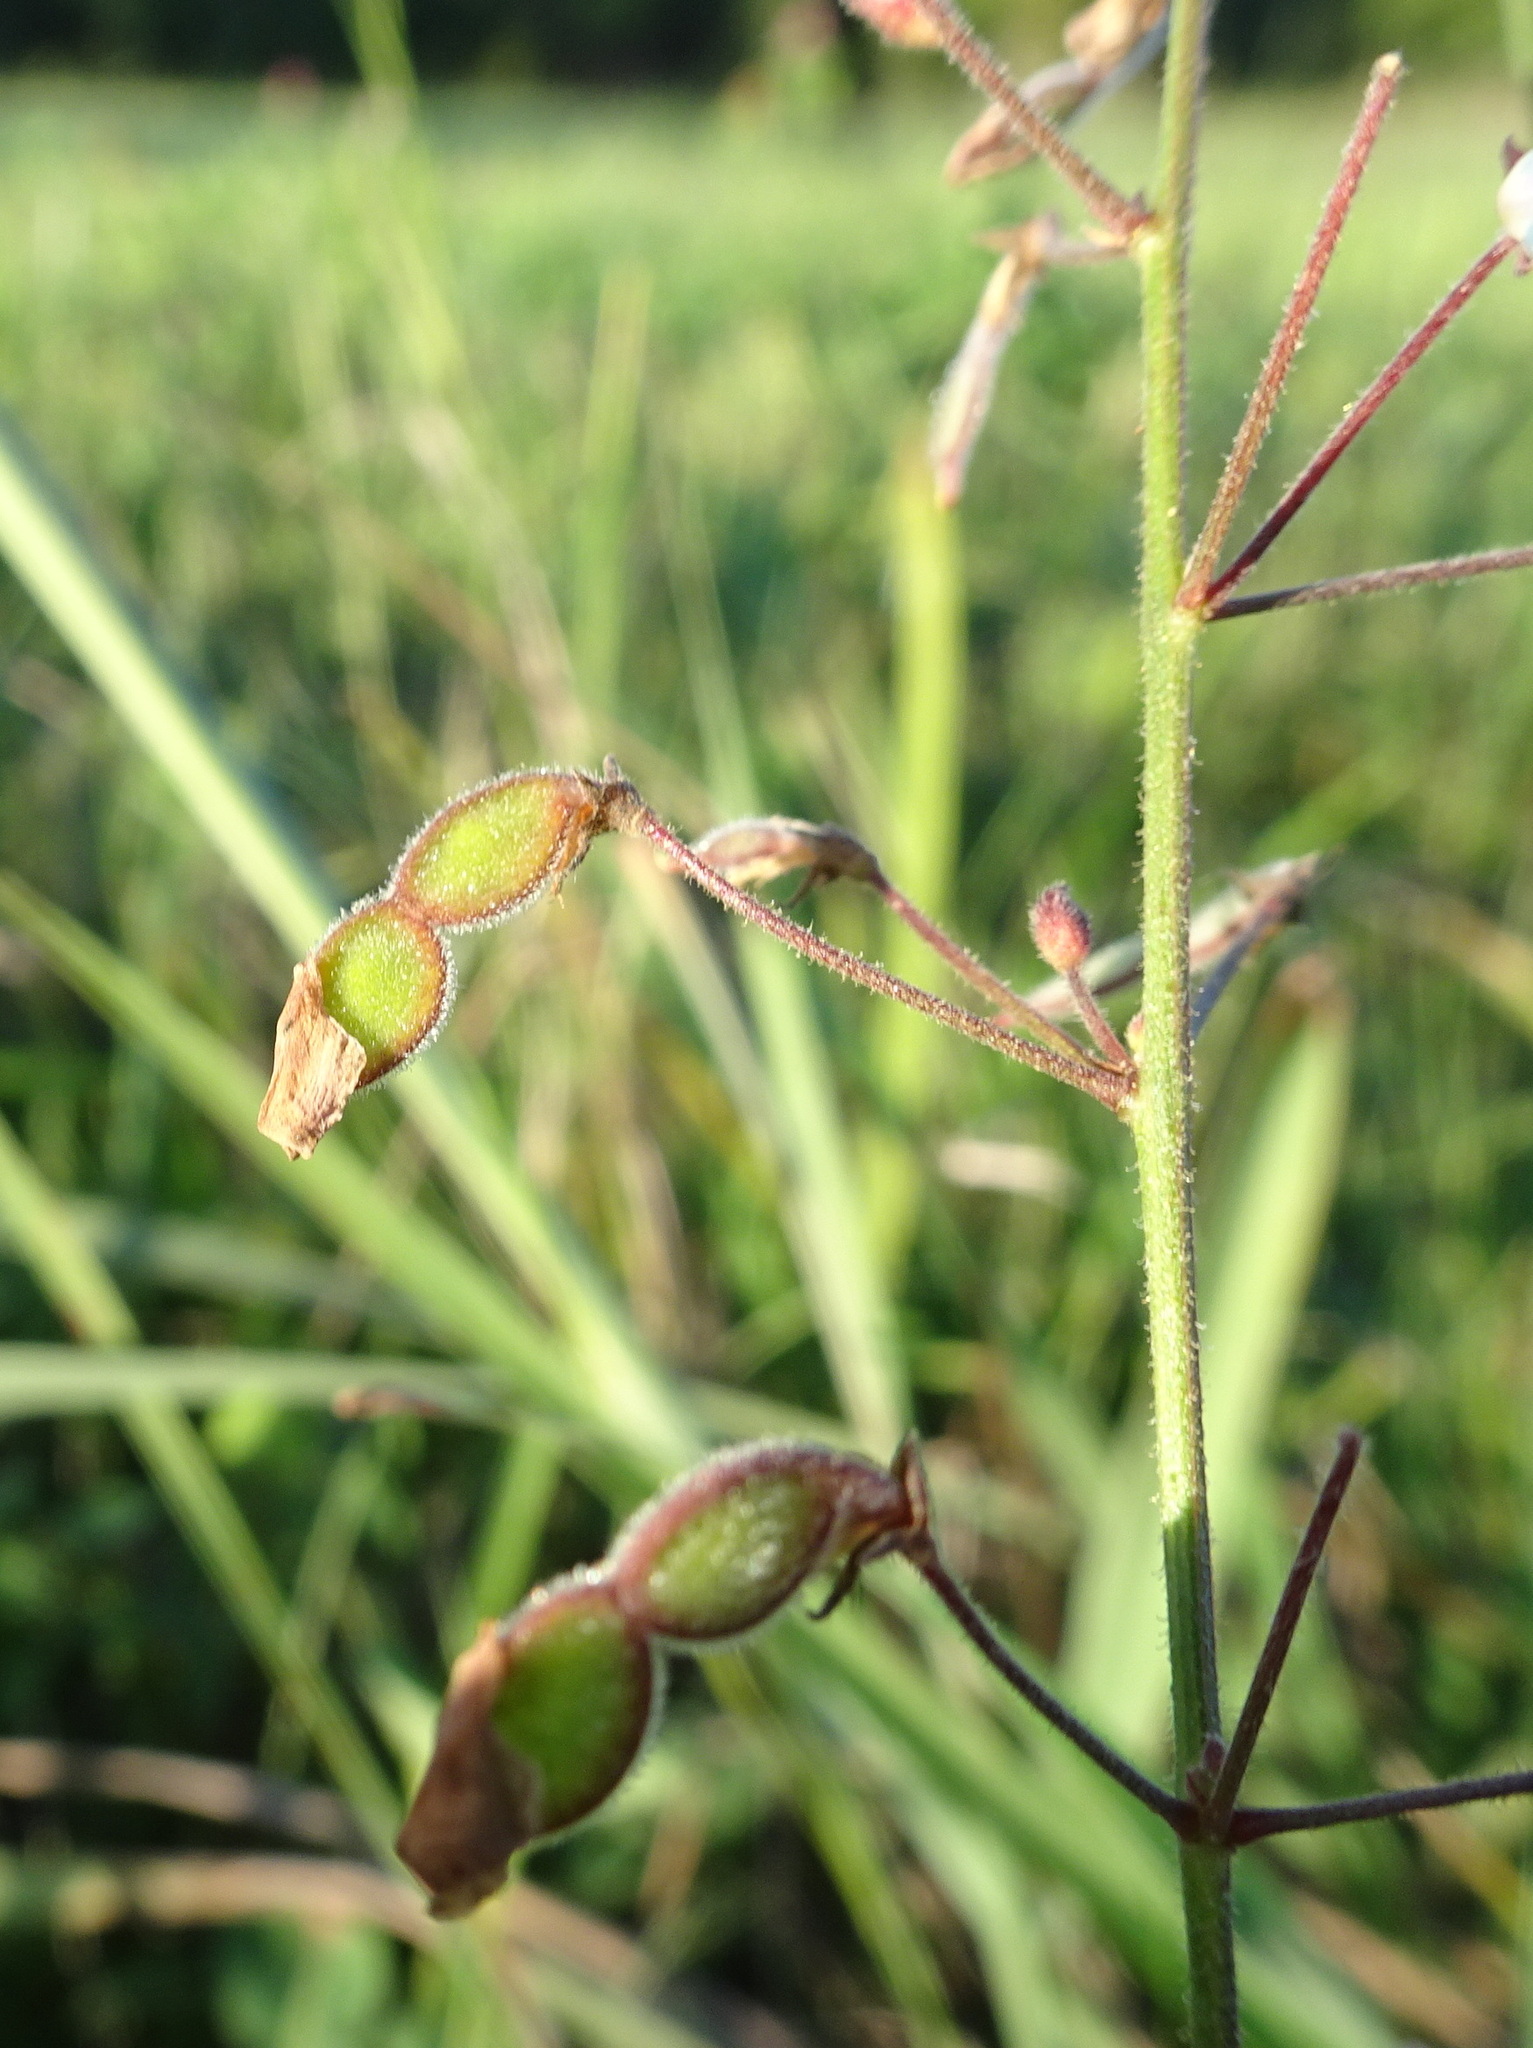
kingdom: Plantae
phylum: Tracheophyta
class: Magnoliopsida
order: Fabales
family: Fabaceae
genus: Desmodium
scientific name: Desmodium ciliare
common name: Hairy small-leaf ticktrefoil
